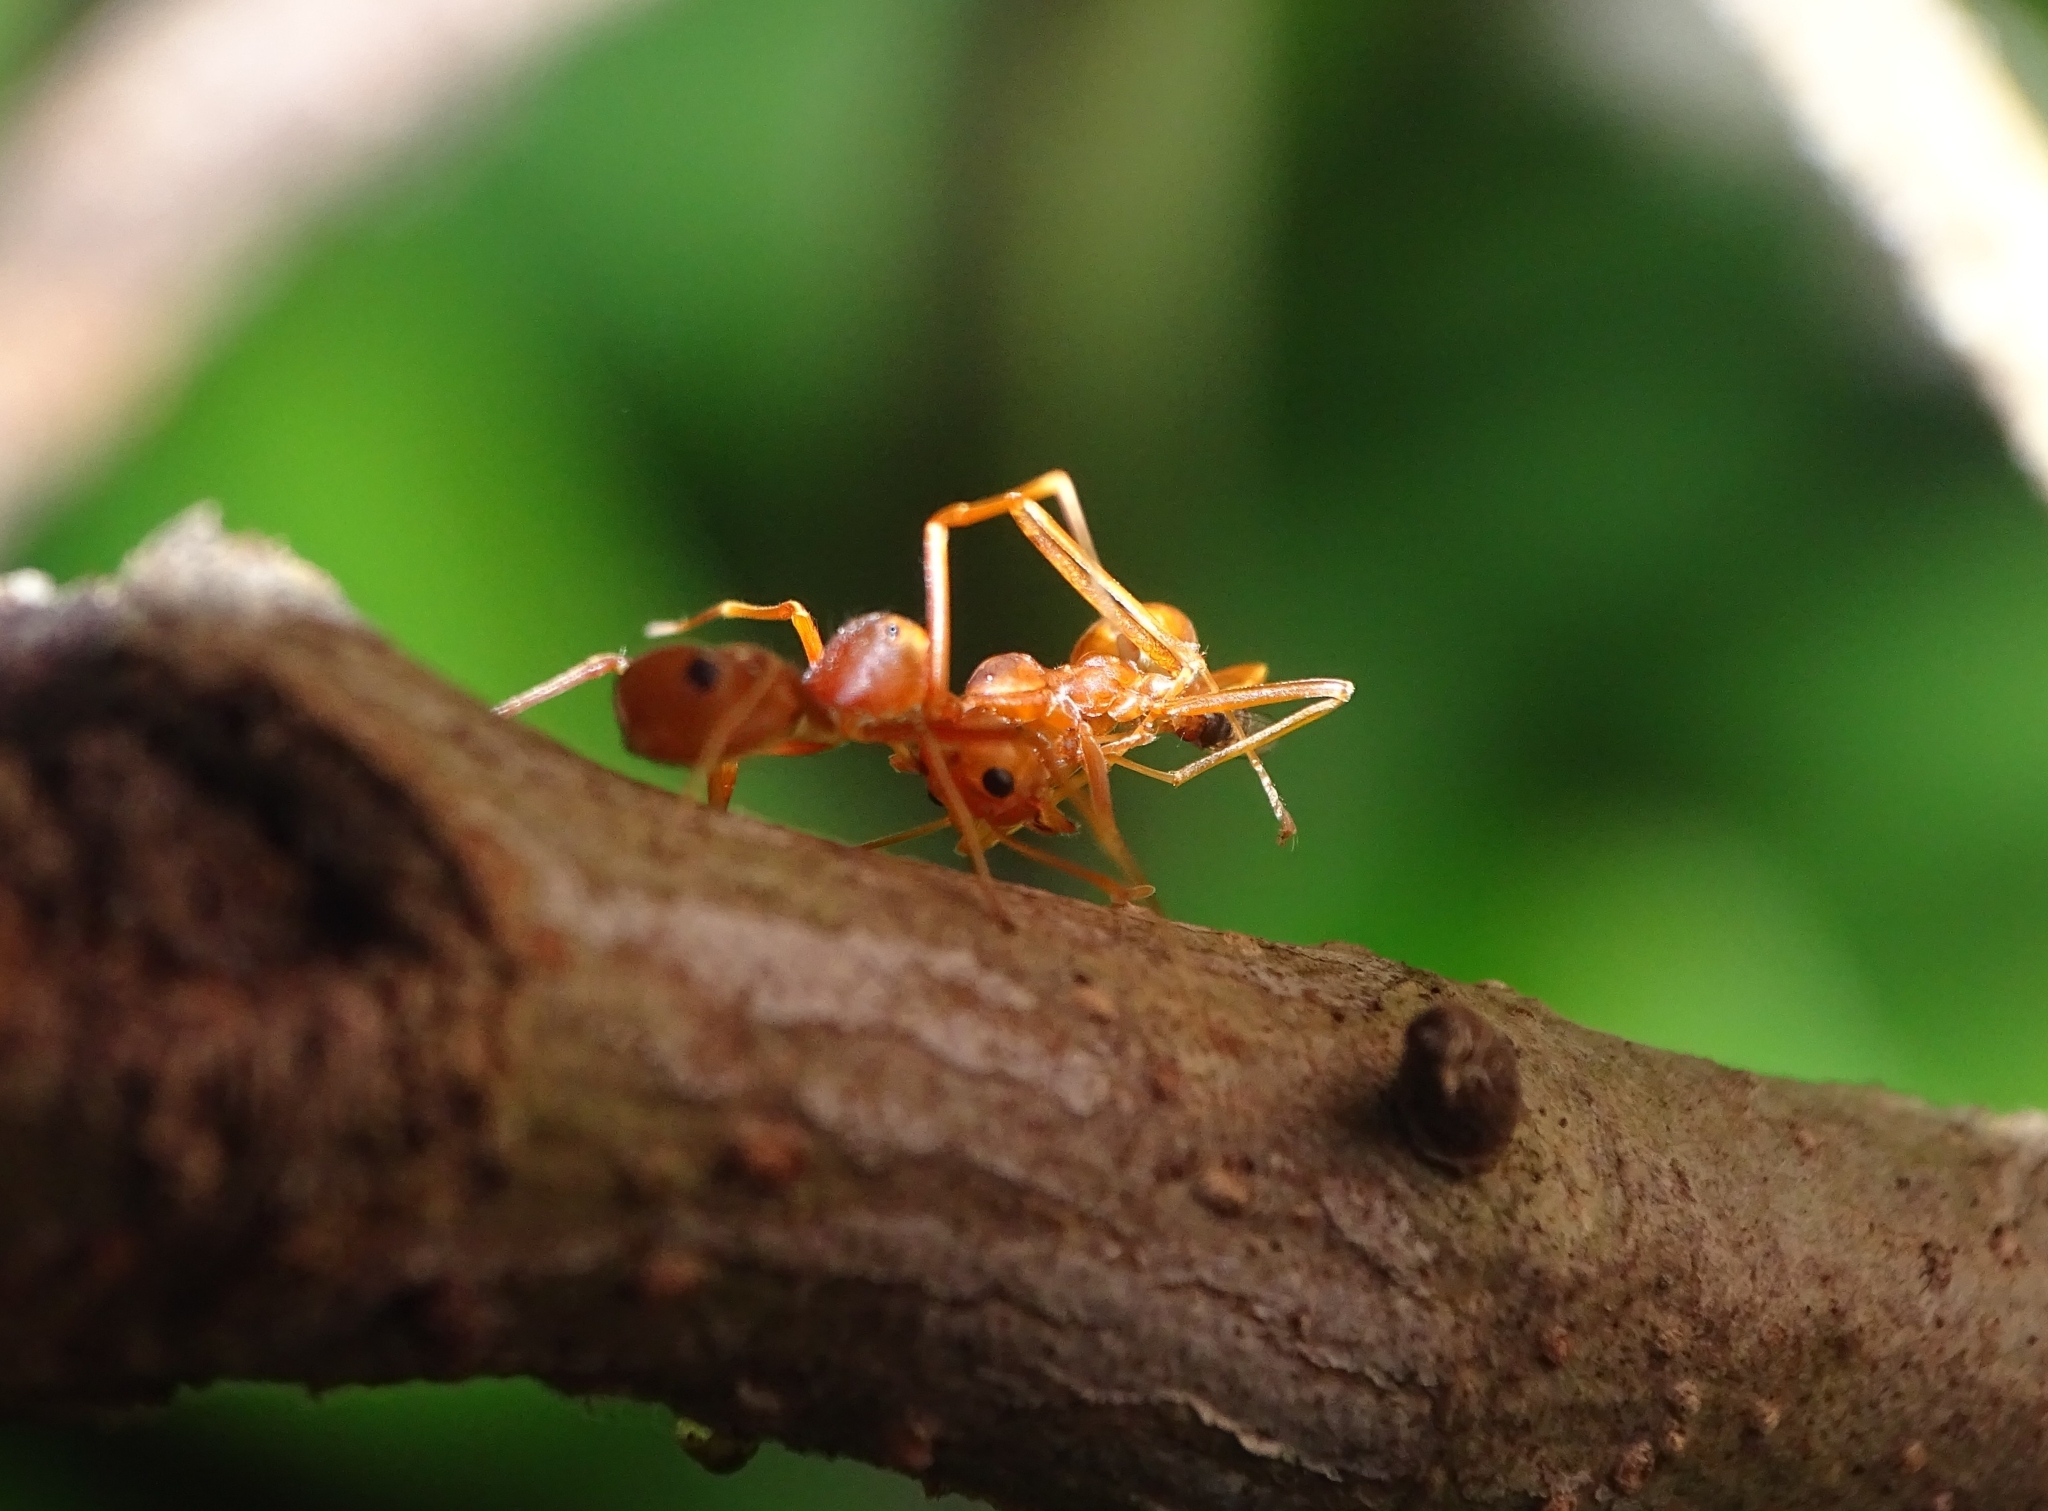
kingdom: Animalia
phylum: Arthropoda
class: Arachnida
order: Araneae
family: Thomisidae
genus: Amyciaea
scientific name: Amyciaea forticeps
